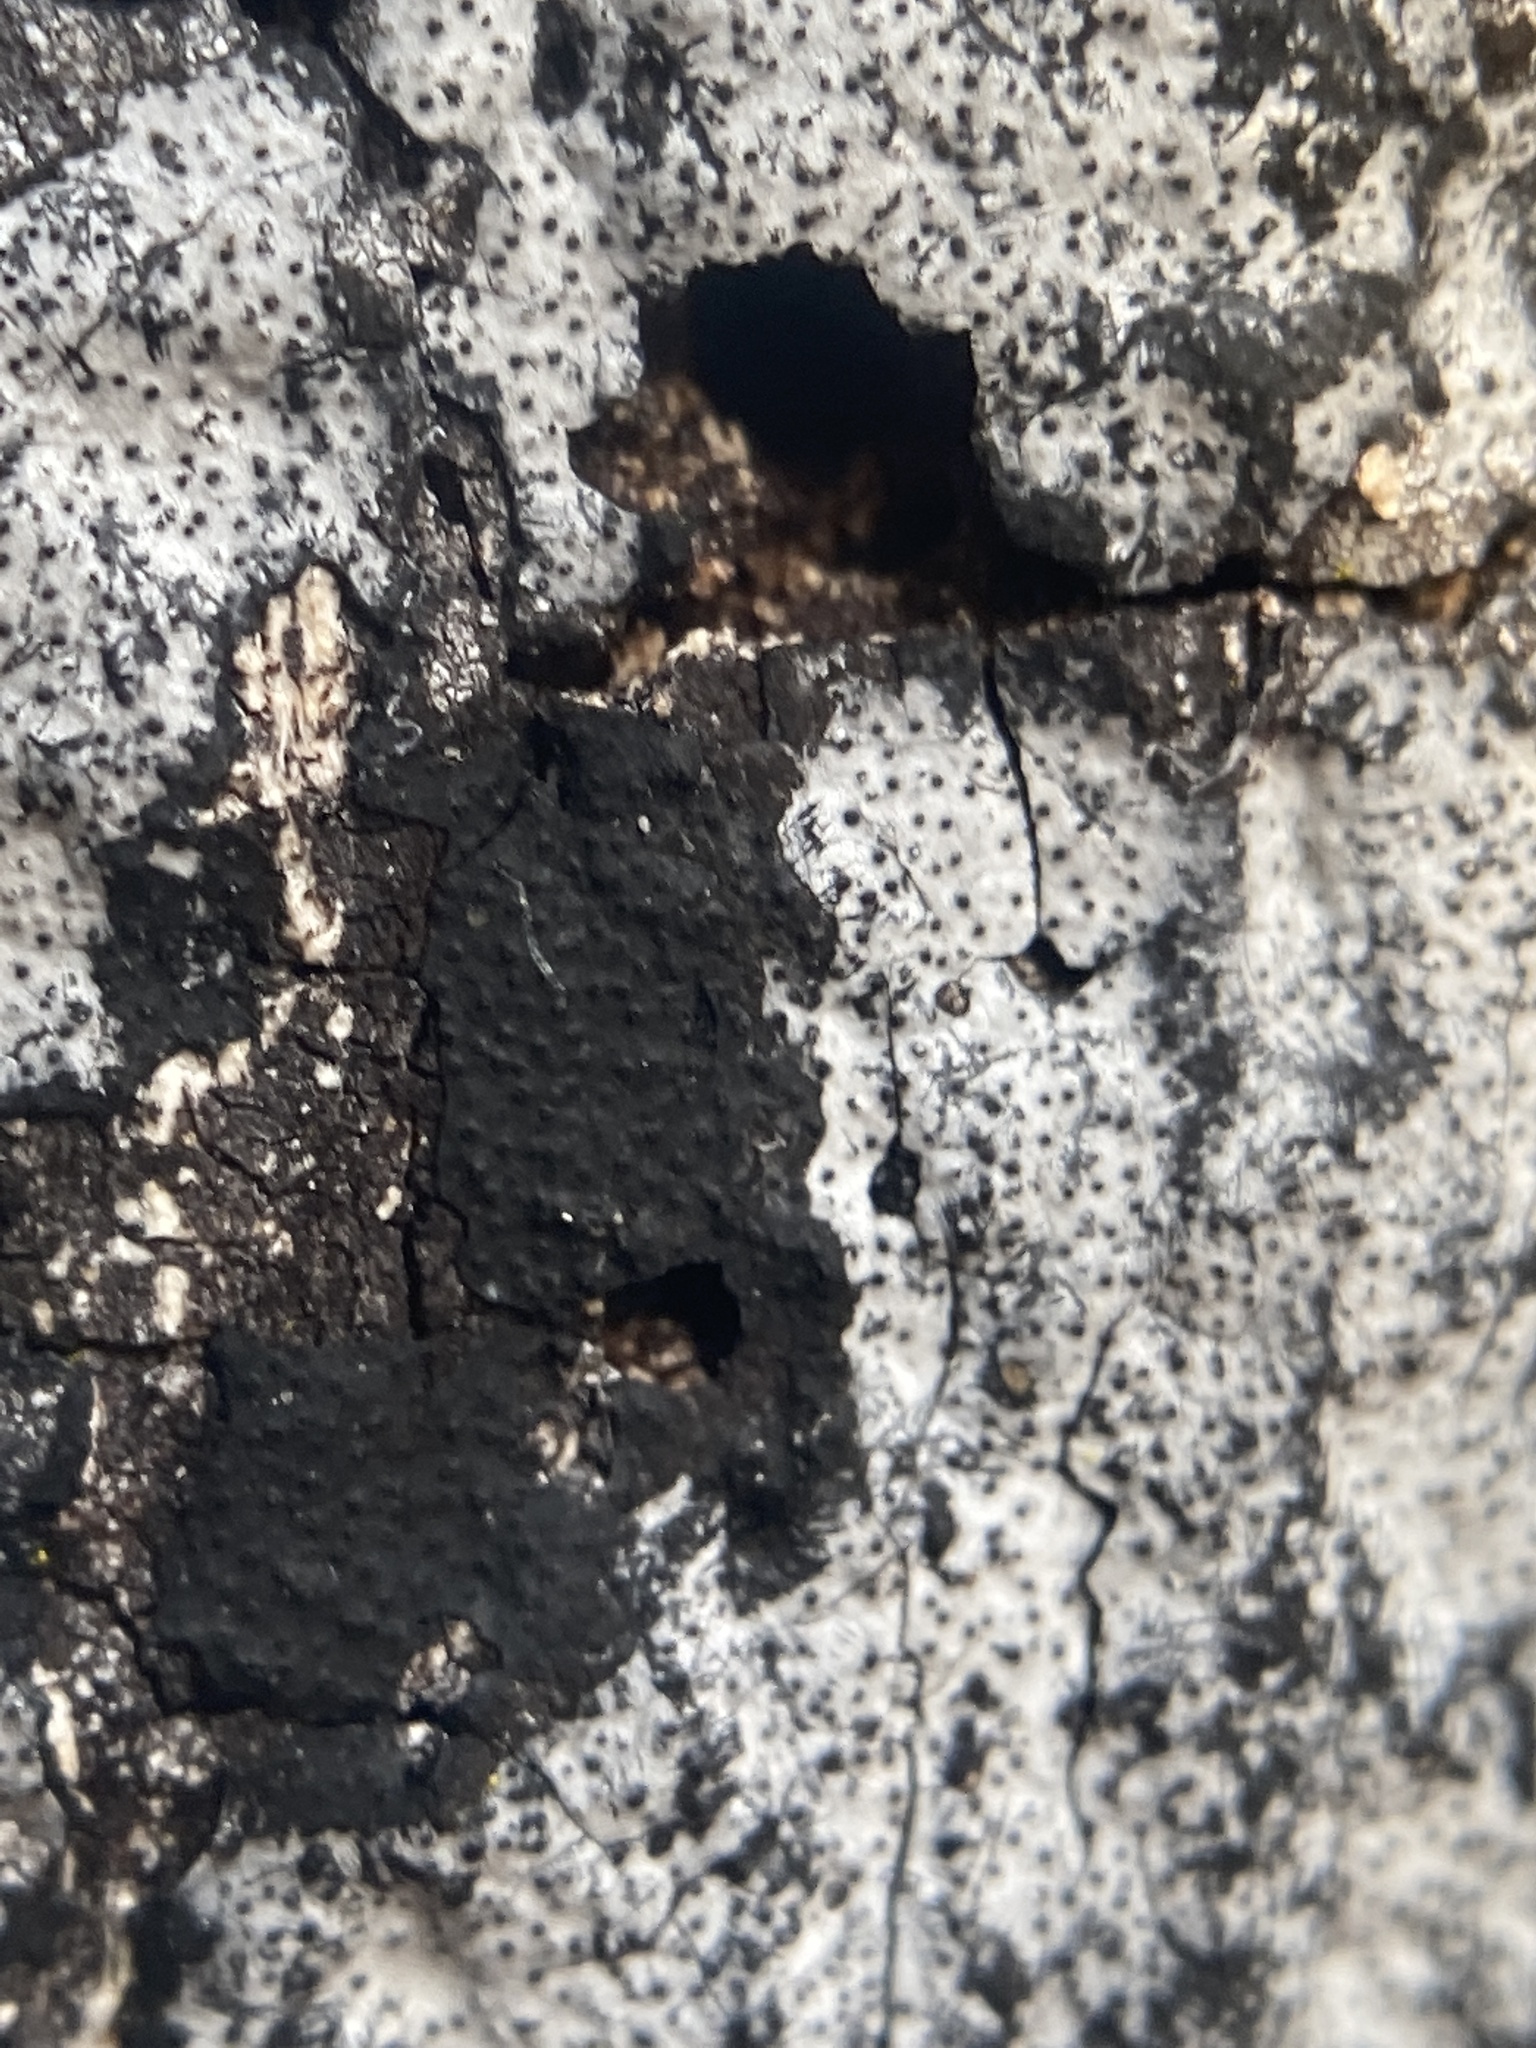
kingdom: Fungi
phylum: Ascomycota
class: Sordariomycetes
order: Xylariales
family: Graphostromataceae
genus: Biscogniauxia
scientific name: Biscogniauxia atropunctata
